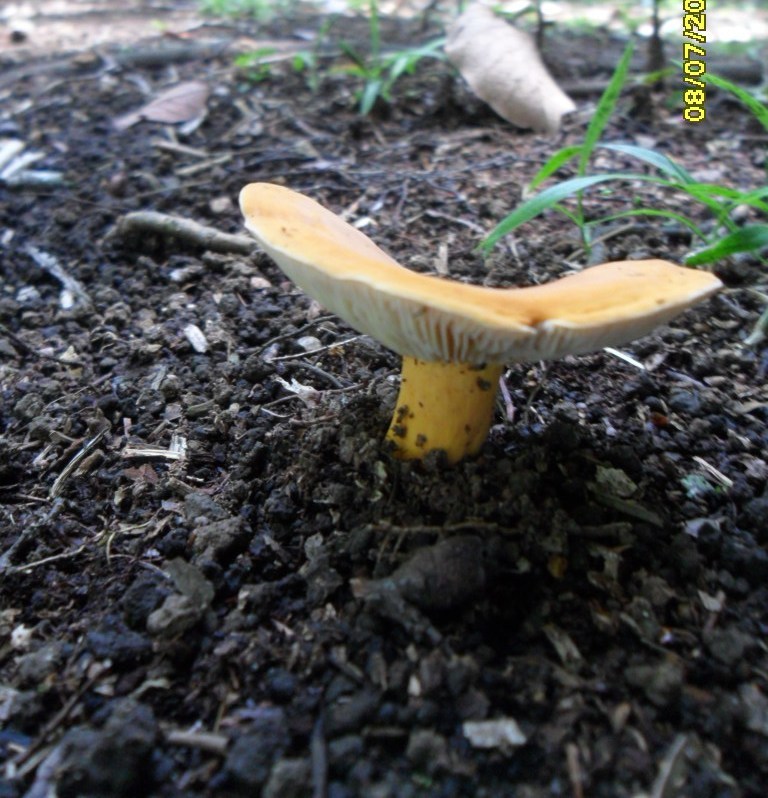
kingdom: Fungi
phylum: Basidiomycota
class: Agaricomycetes
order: Russulales
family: Russulaceae
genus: Lactarius
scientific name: Lactarius hygrophoroides
